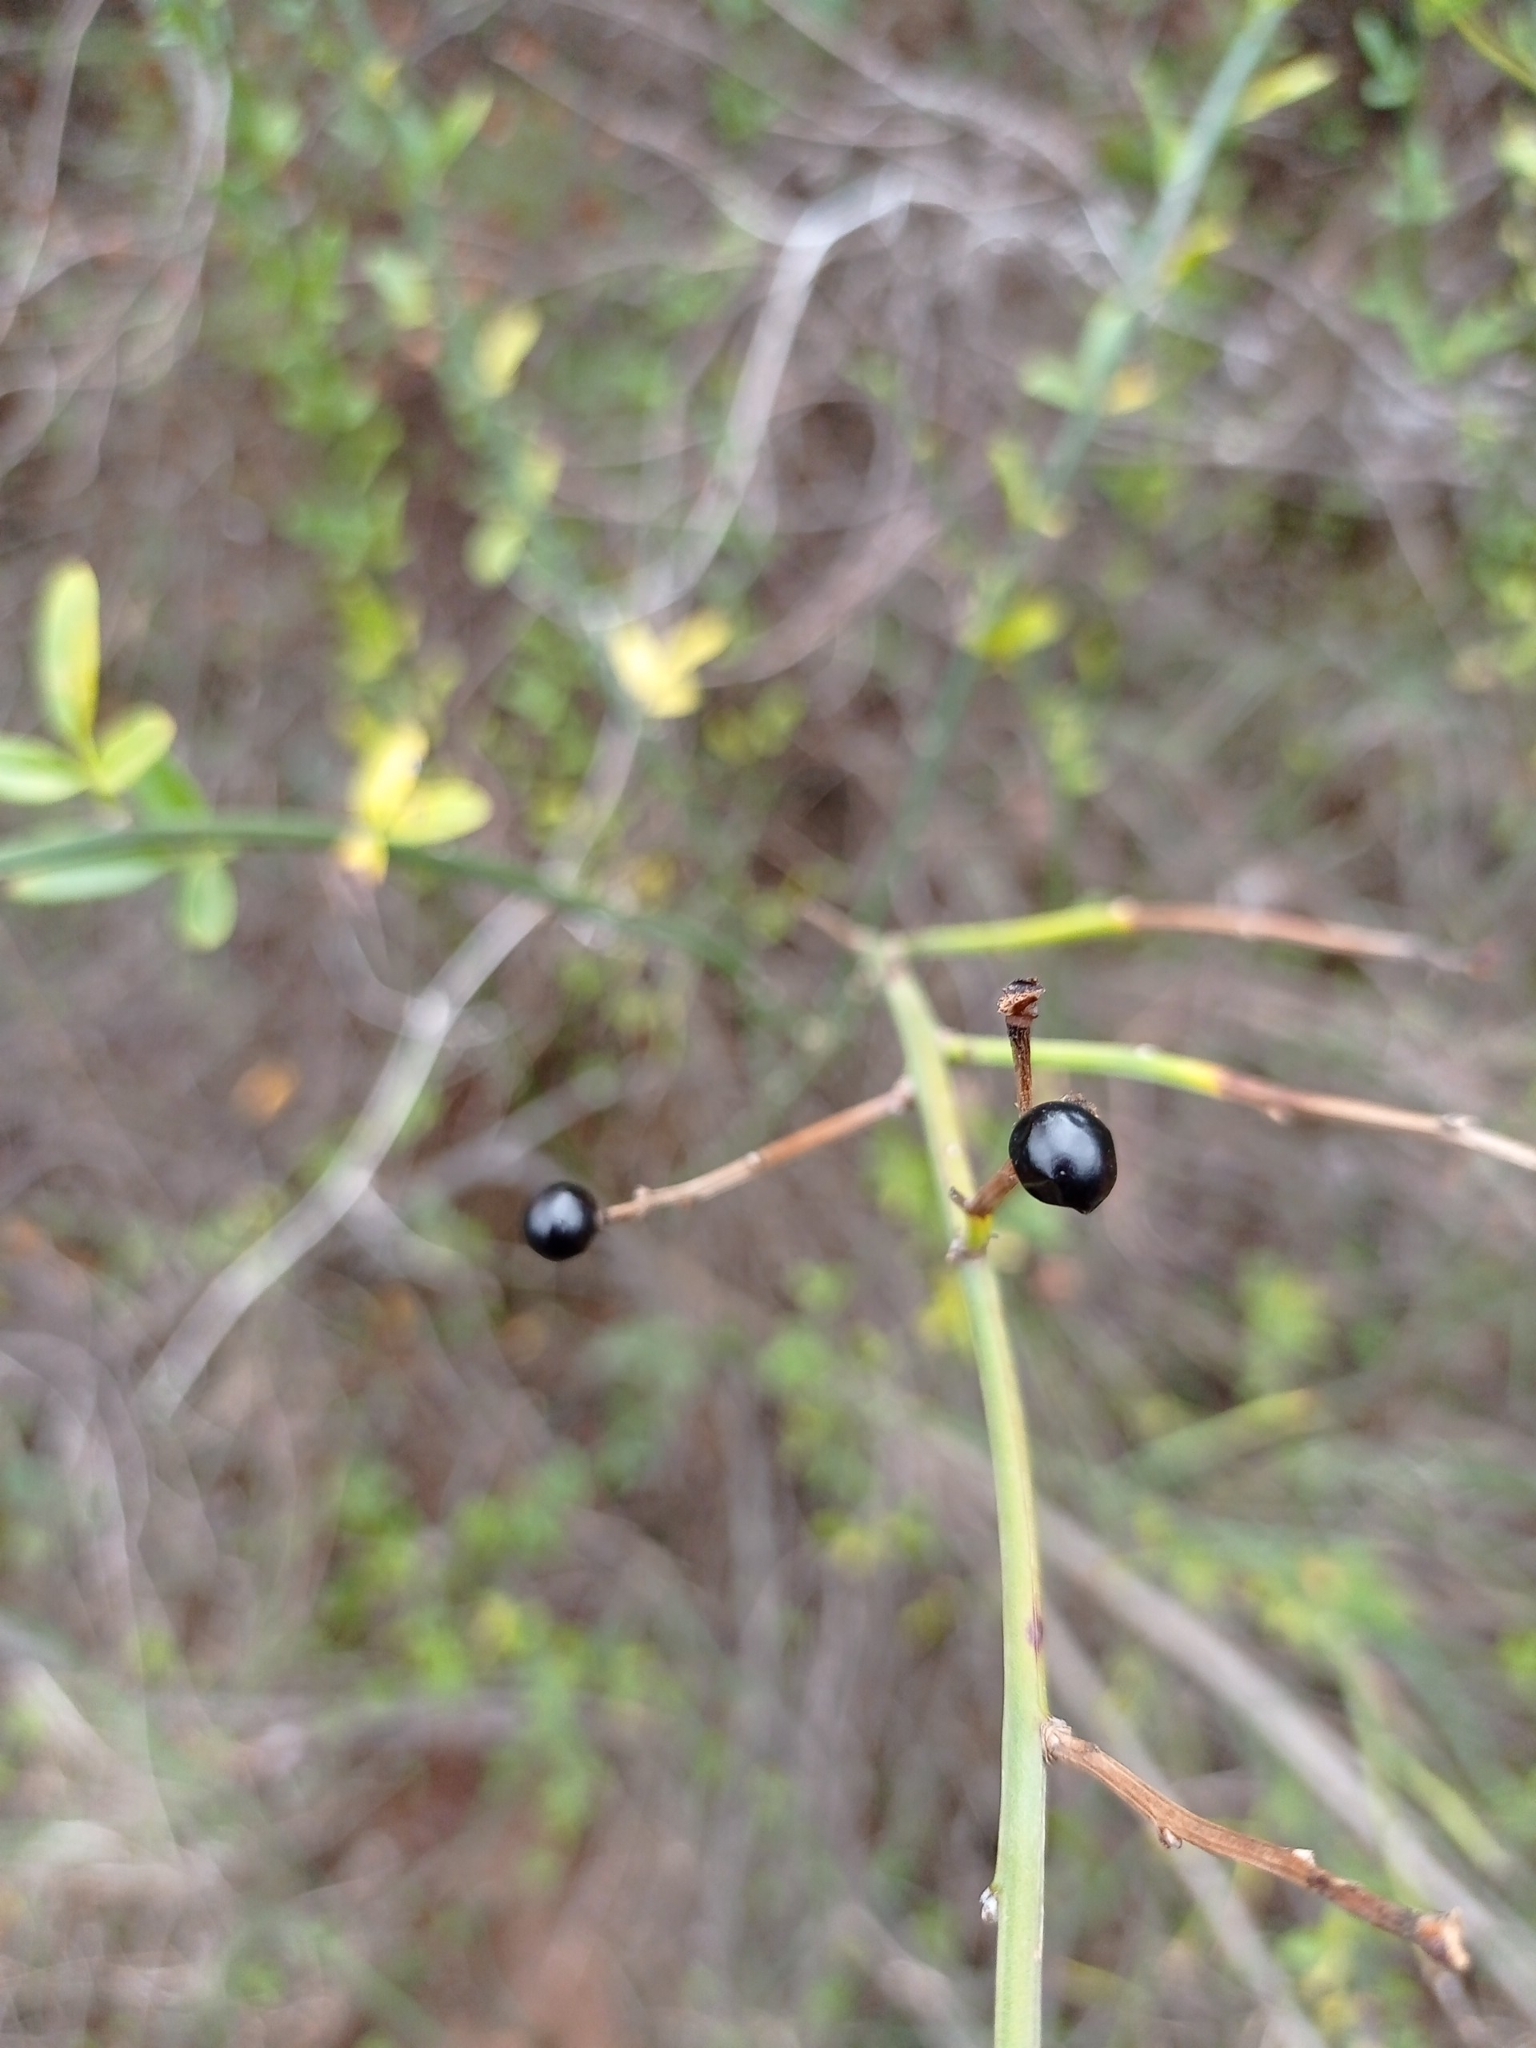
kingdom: Plantae
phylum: Tracheophyta
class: Magnoliopsida
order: Lamiales
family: Oleaceae
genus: Chrysojasminum
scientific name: Chrysojasminum fruticans
